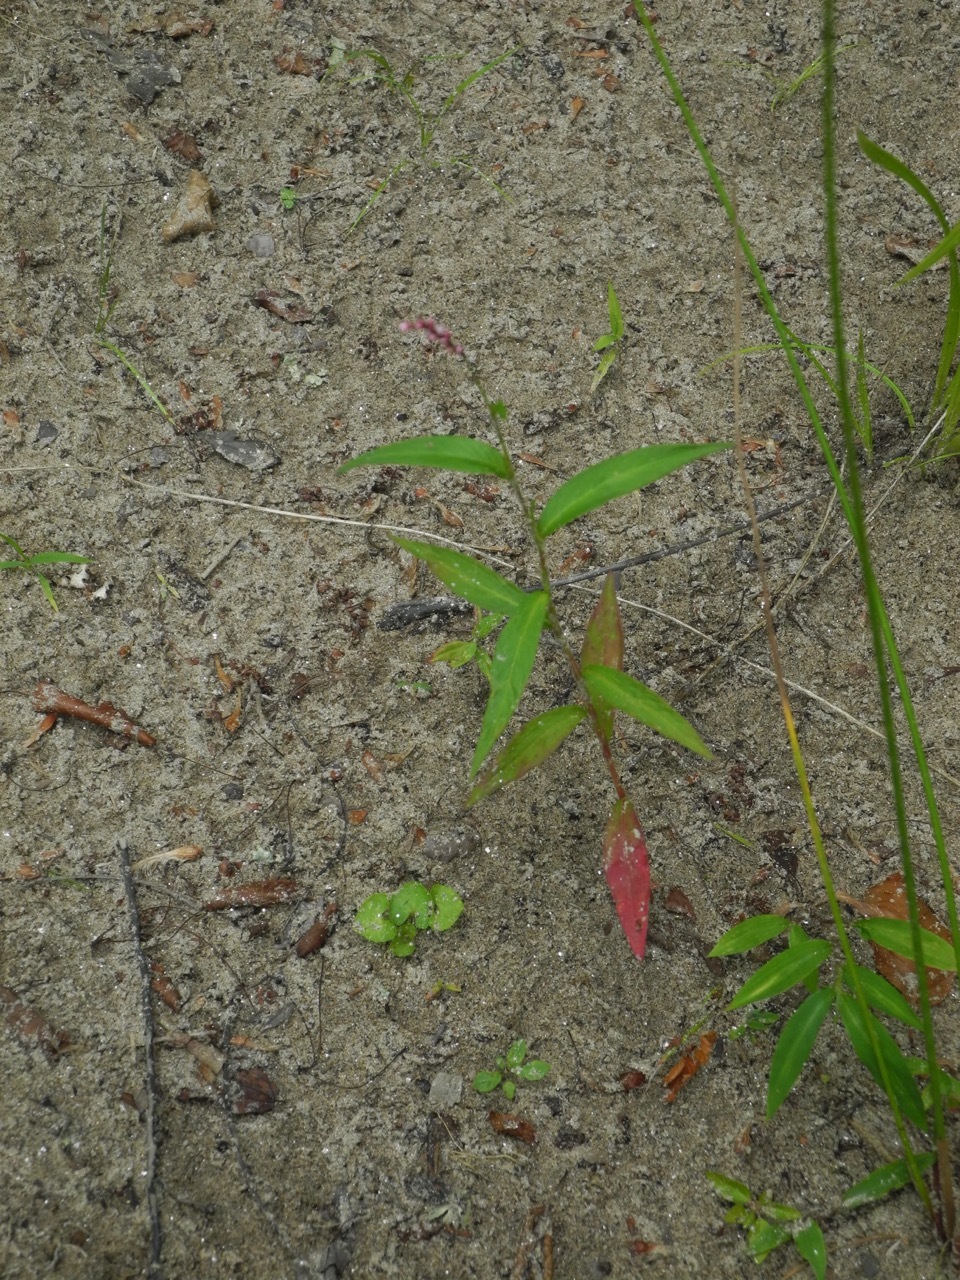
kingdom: Plantae
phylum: Tracheophyta
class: Magnoliopsida
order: Caryophyllales
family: Polygonaceae
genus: Persicaria
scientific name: Persicaria pensylvanica
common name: Pinkweed
